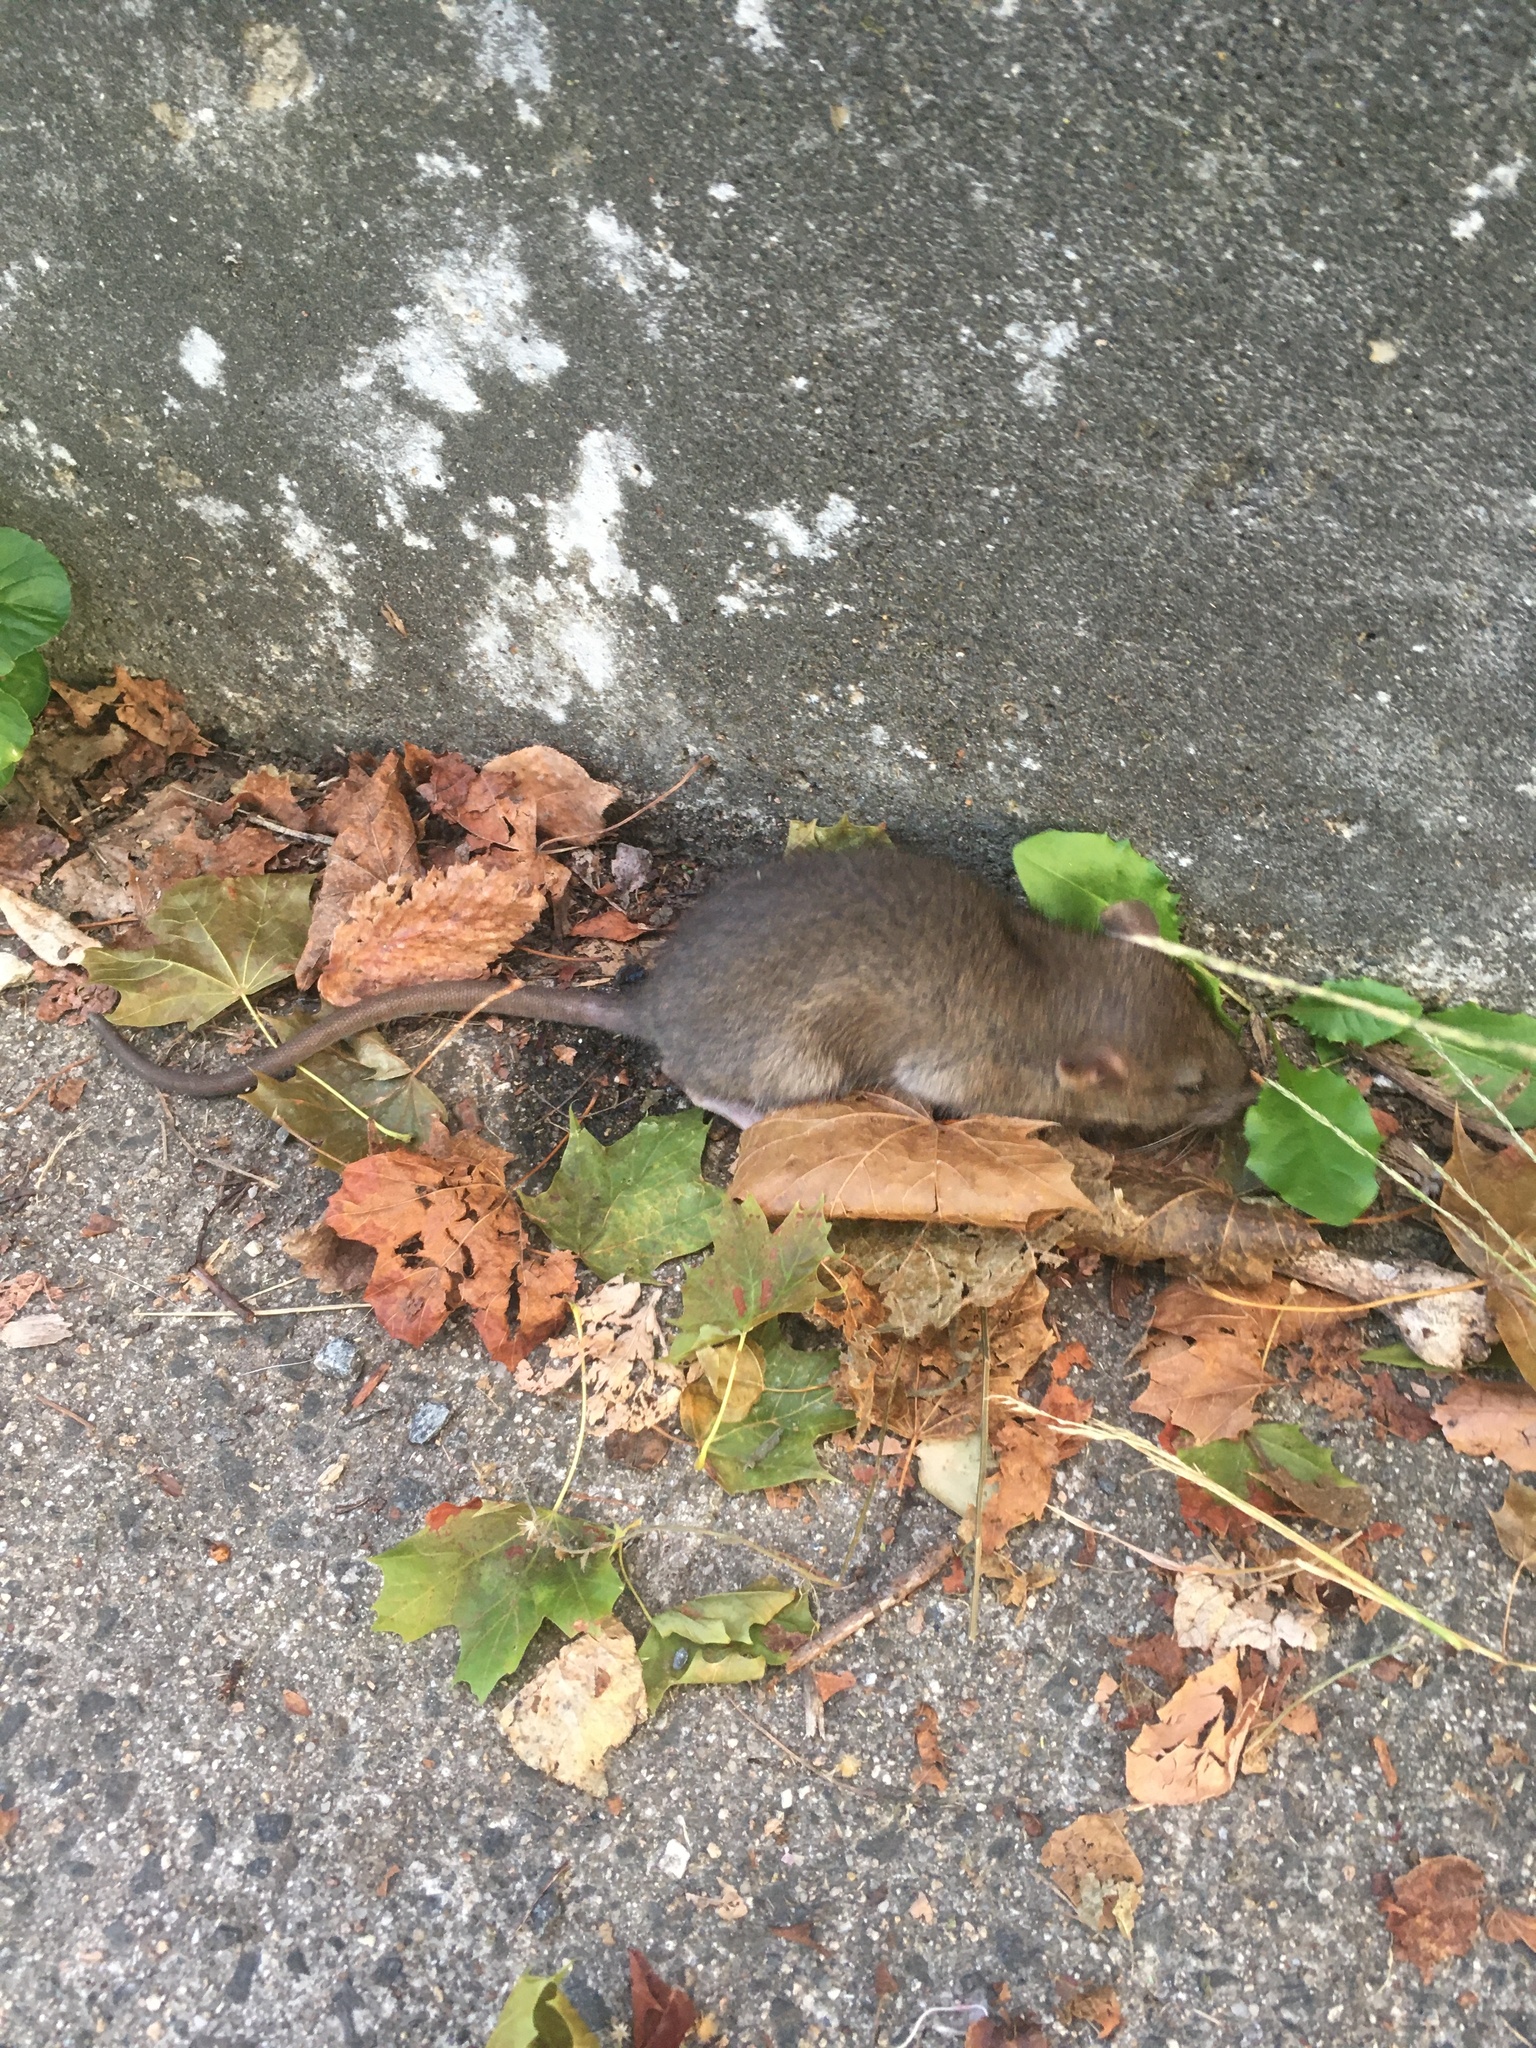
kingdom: Animalia
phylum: Chordata
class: Mammalia
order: Rodentia
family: Muridae
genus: Rattus
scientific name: Rattus norvegicus
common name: Brown rat
